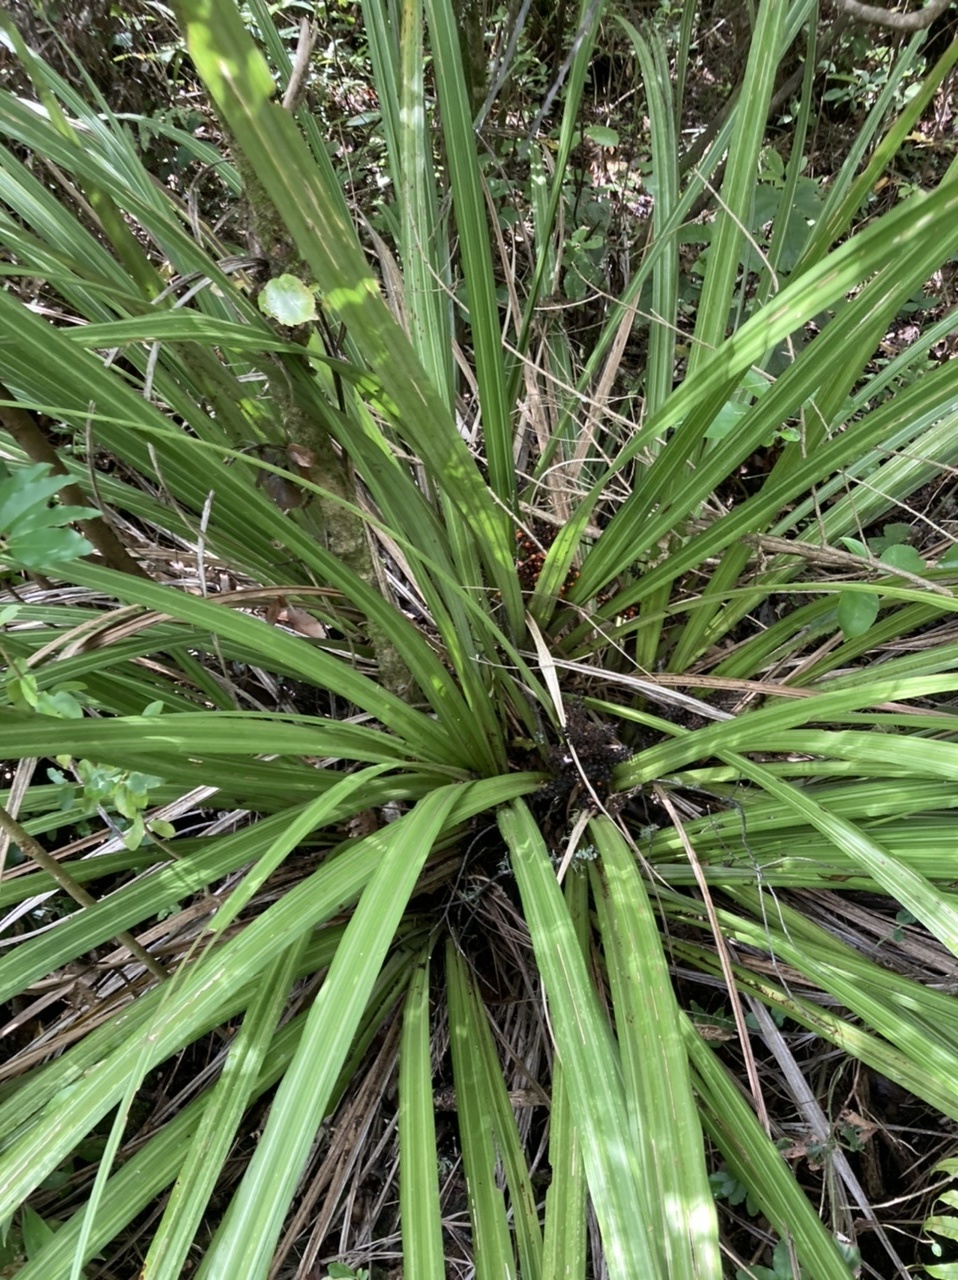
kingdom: Plantae
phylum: Tracheophyta
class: Liliopsida
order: Asparagales
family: Asteliaceae
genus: Astelia
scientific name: Astelia fragrans
